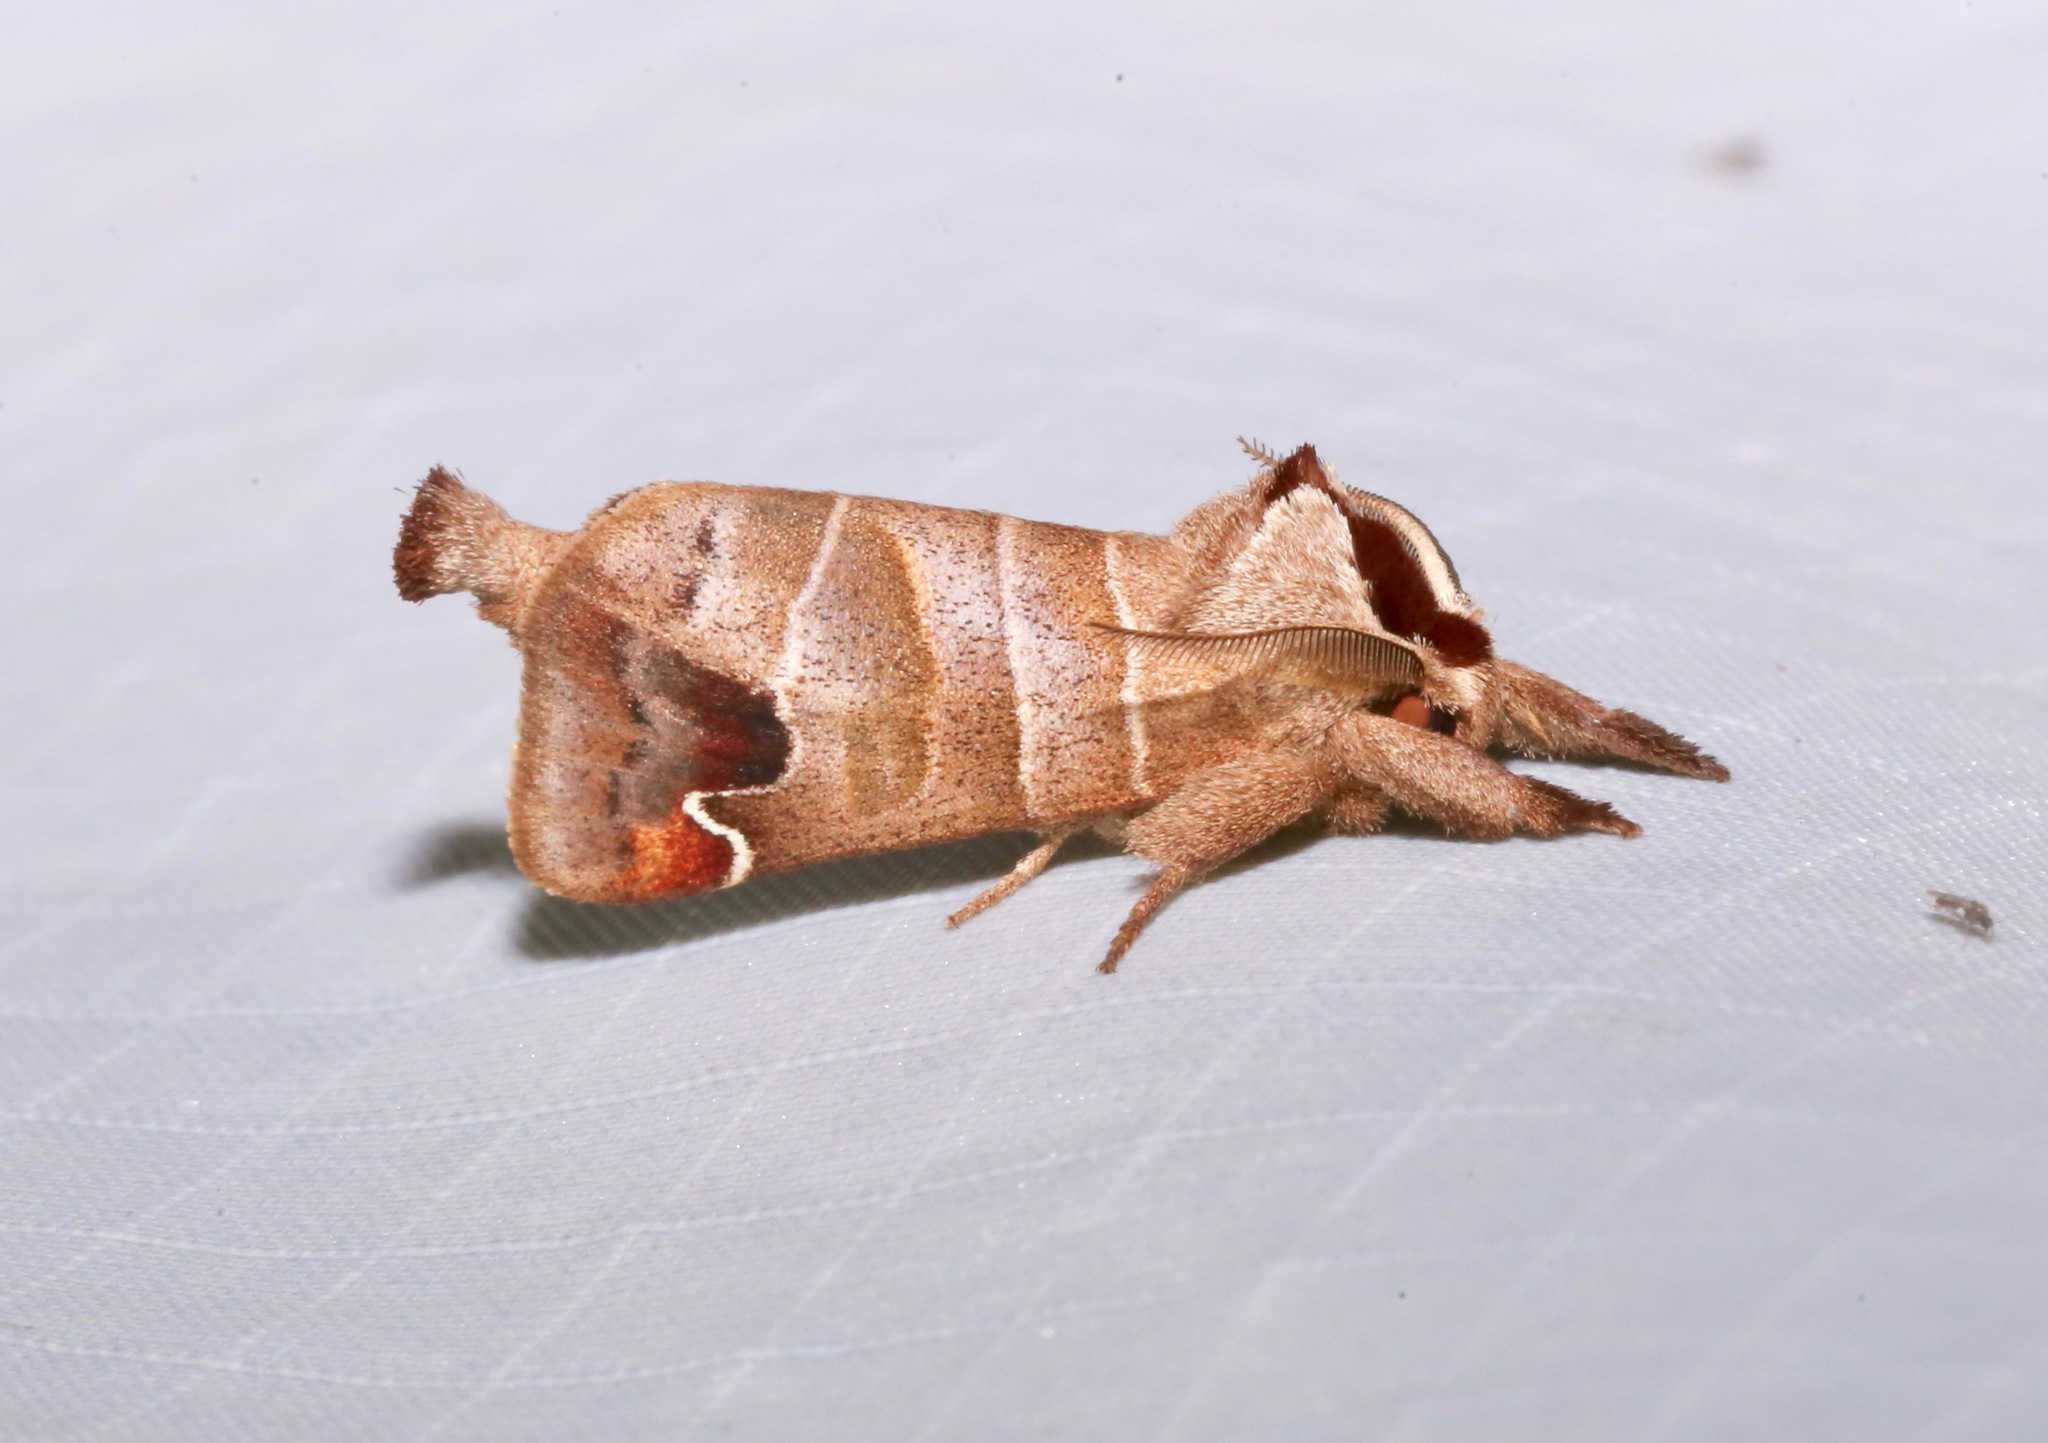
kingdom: Animalia
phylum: Arthropoda
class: Insecta
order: Lepidoptera
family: Notodontidae
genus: Clostera
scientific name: Clostera albosigma
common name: Sigmoid prominent
